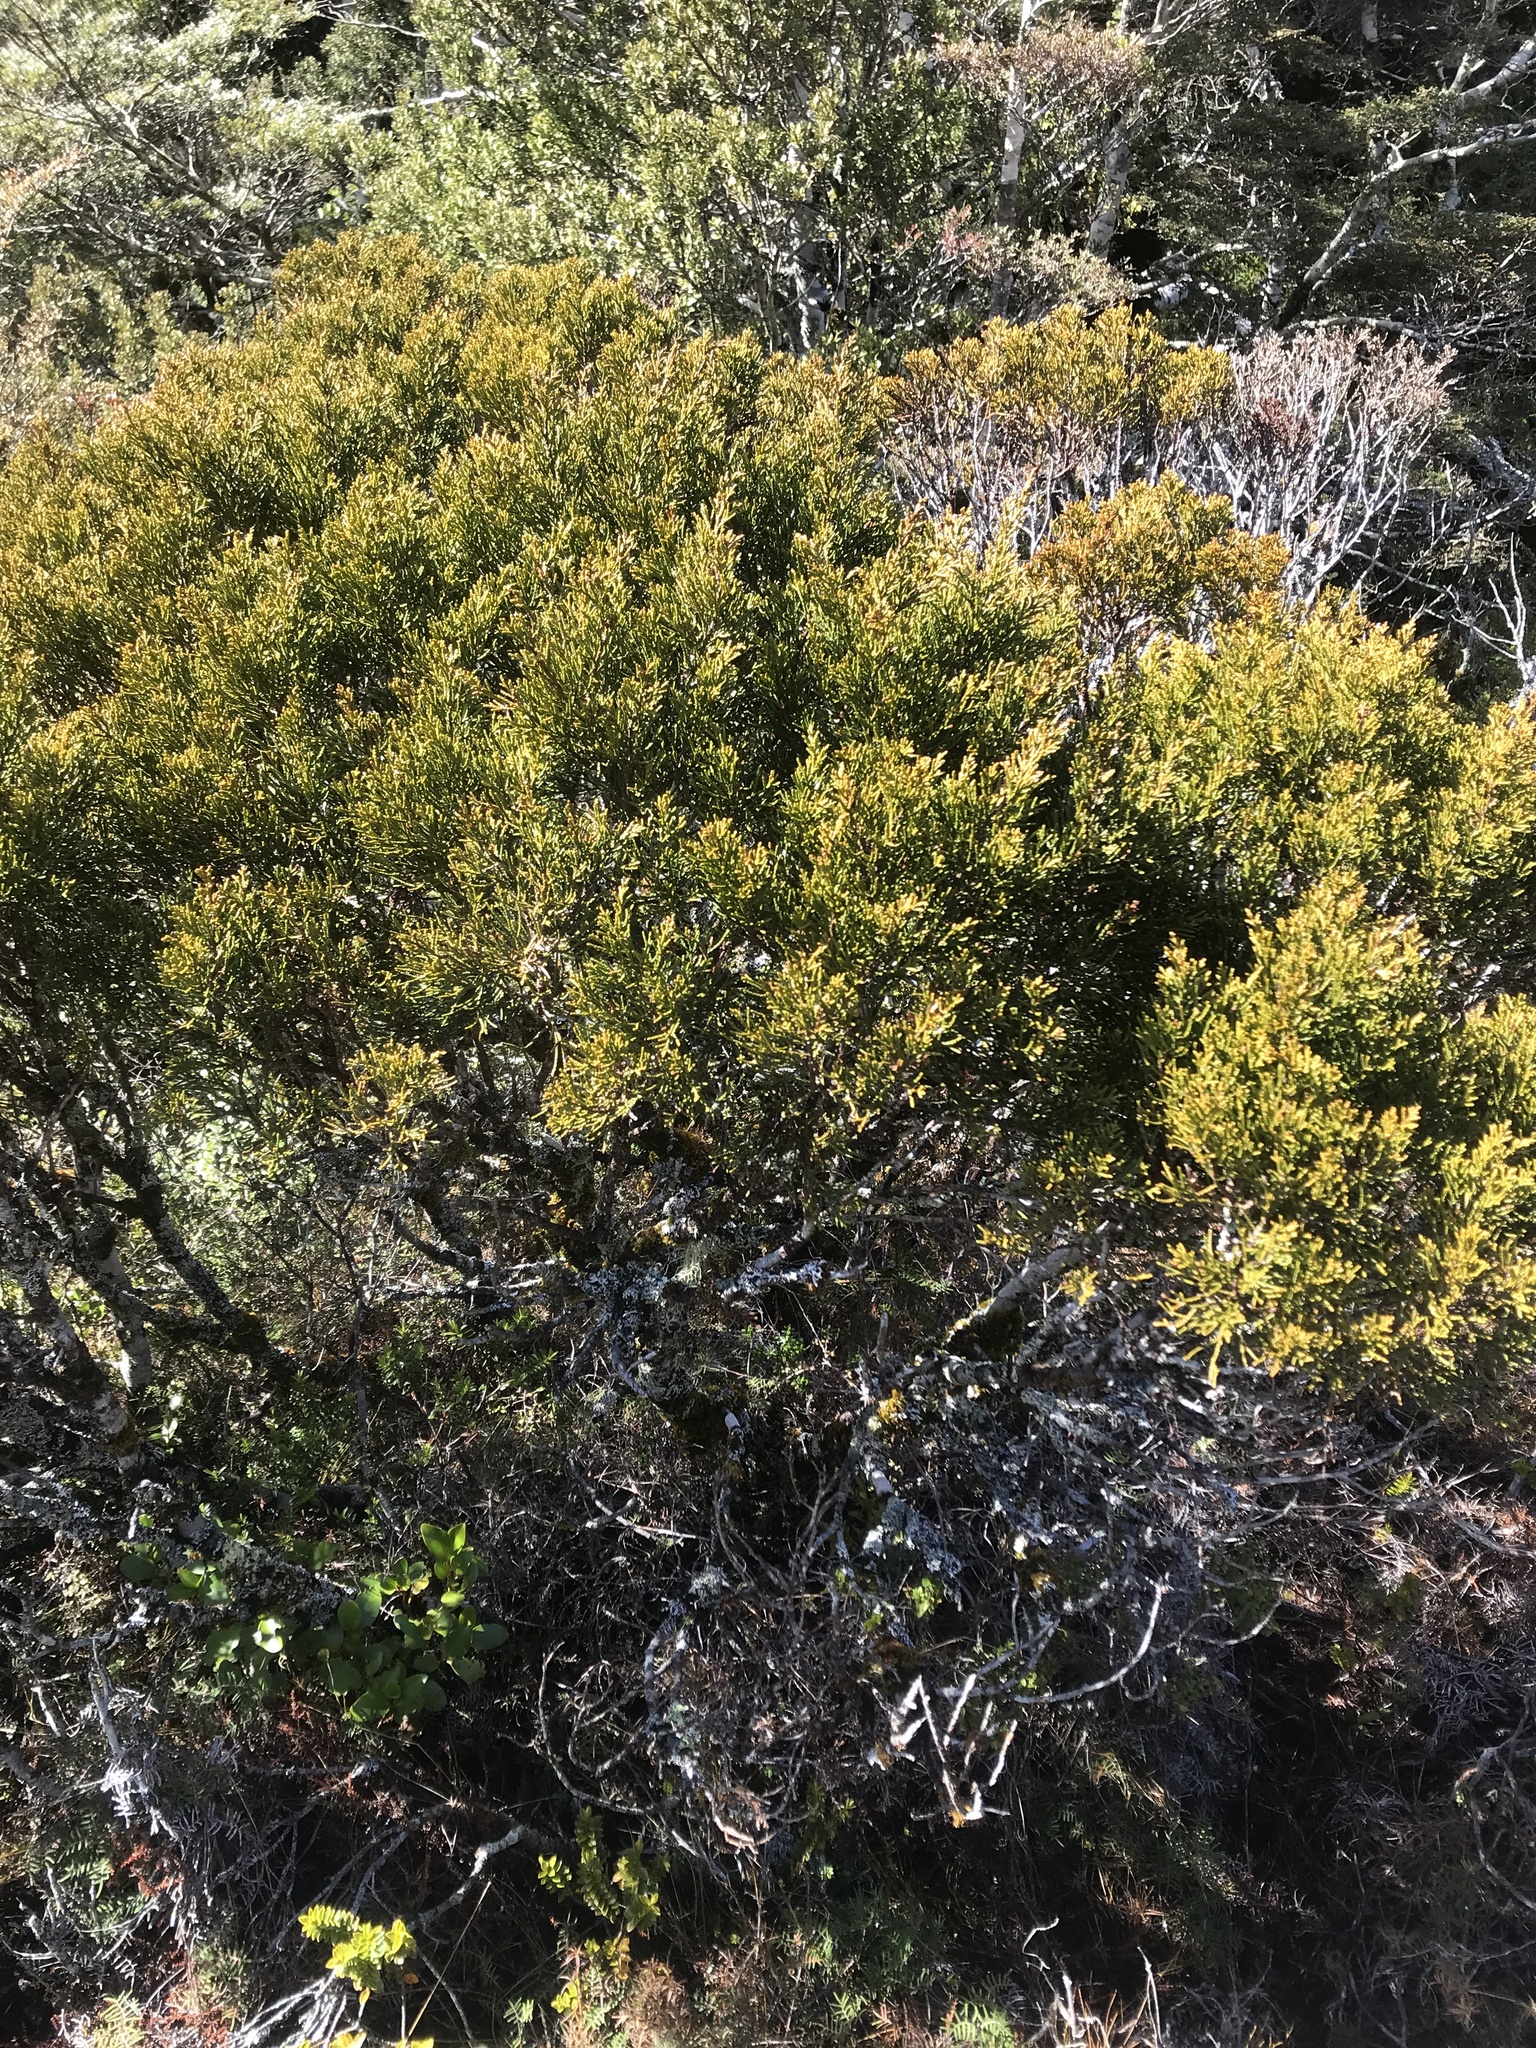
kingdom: Plantae
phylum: Tracheophyta
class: Pinopsida
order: Pinales
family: Podocarpaceae
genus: Halocarpus
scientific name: Halocarpus bidwillii
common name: Bog pine
